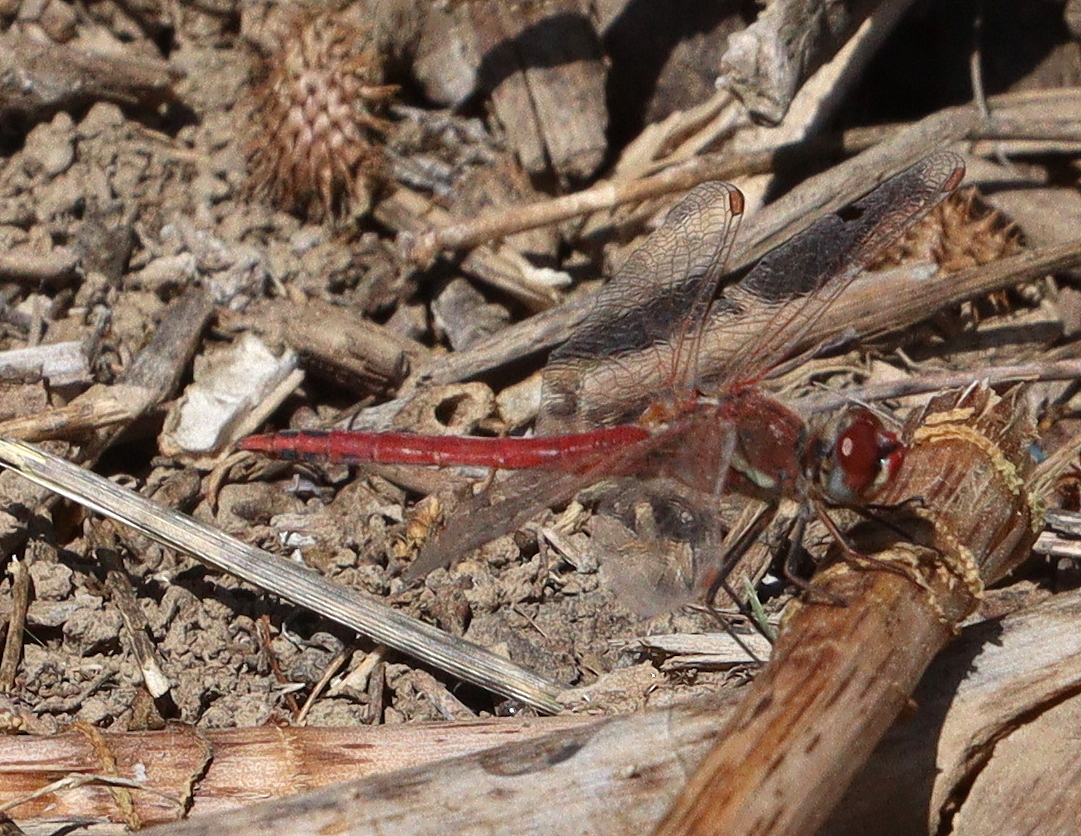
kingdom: Animalia
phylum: Arthropoda
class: Insecta
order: Odonata
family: Libellulidae
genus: Sympetrum
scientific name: Sympetrum fonscolombii
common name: Red-veined darter
